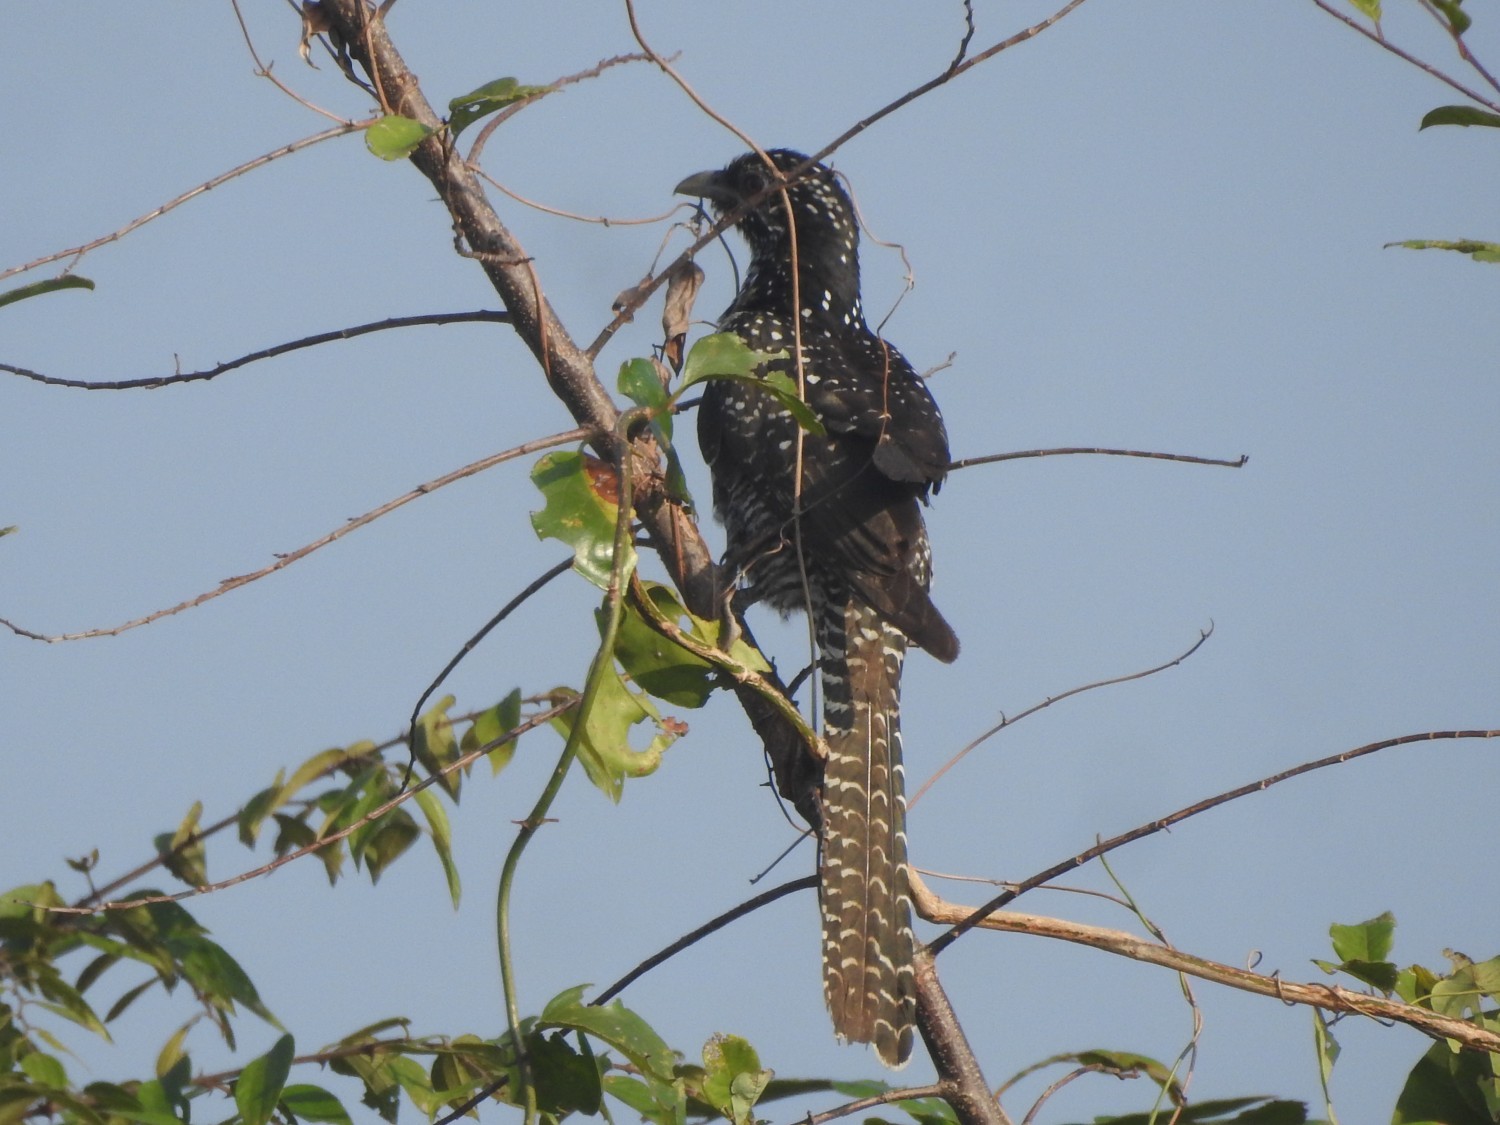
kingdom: Animalia
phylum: Chordata
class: Aves
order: Cuculiformes
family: Cuculidae
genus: Eudynamys
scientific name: Eudynamys scolopaceus
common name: Asian koel
